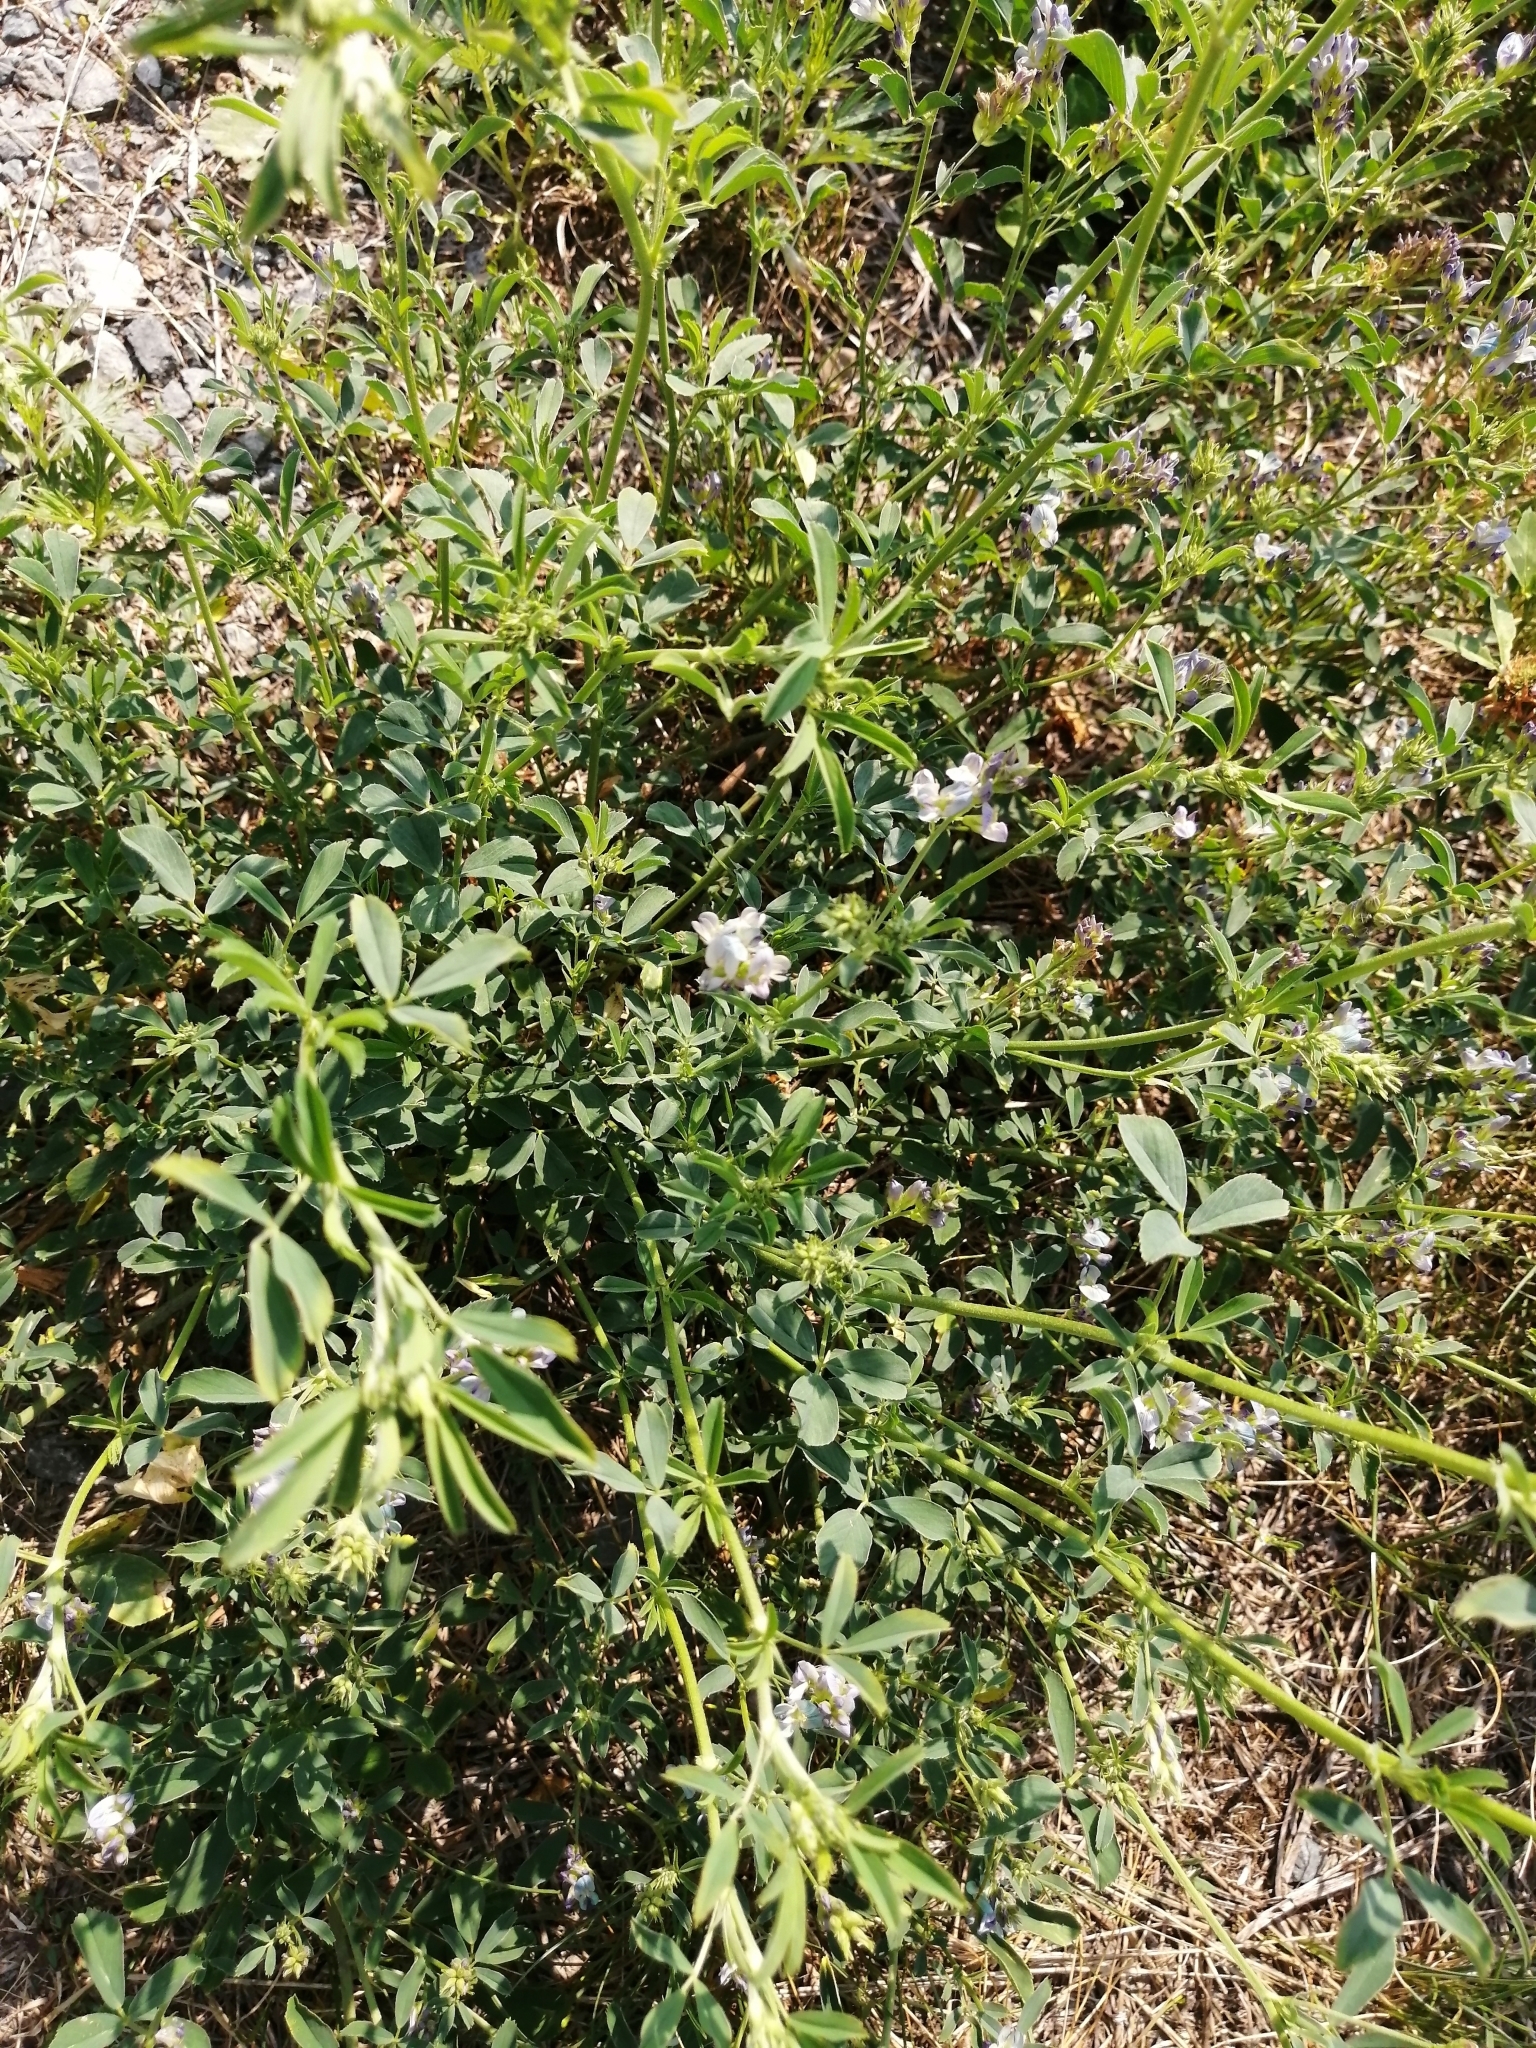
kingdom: Plantae
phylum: Tracheophyta
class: Magnoliopsida
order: Fabales
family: Fabaceae
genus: Medicago
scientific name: Medicago sativa
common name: Alfalfa
